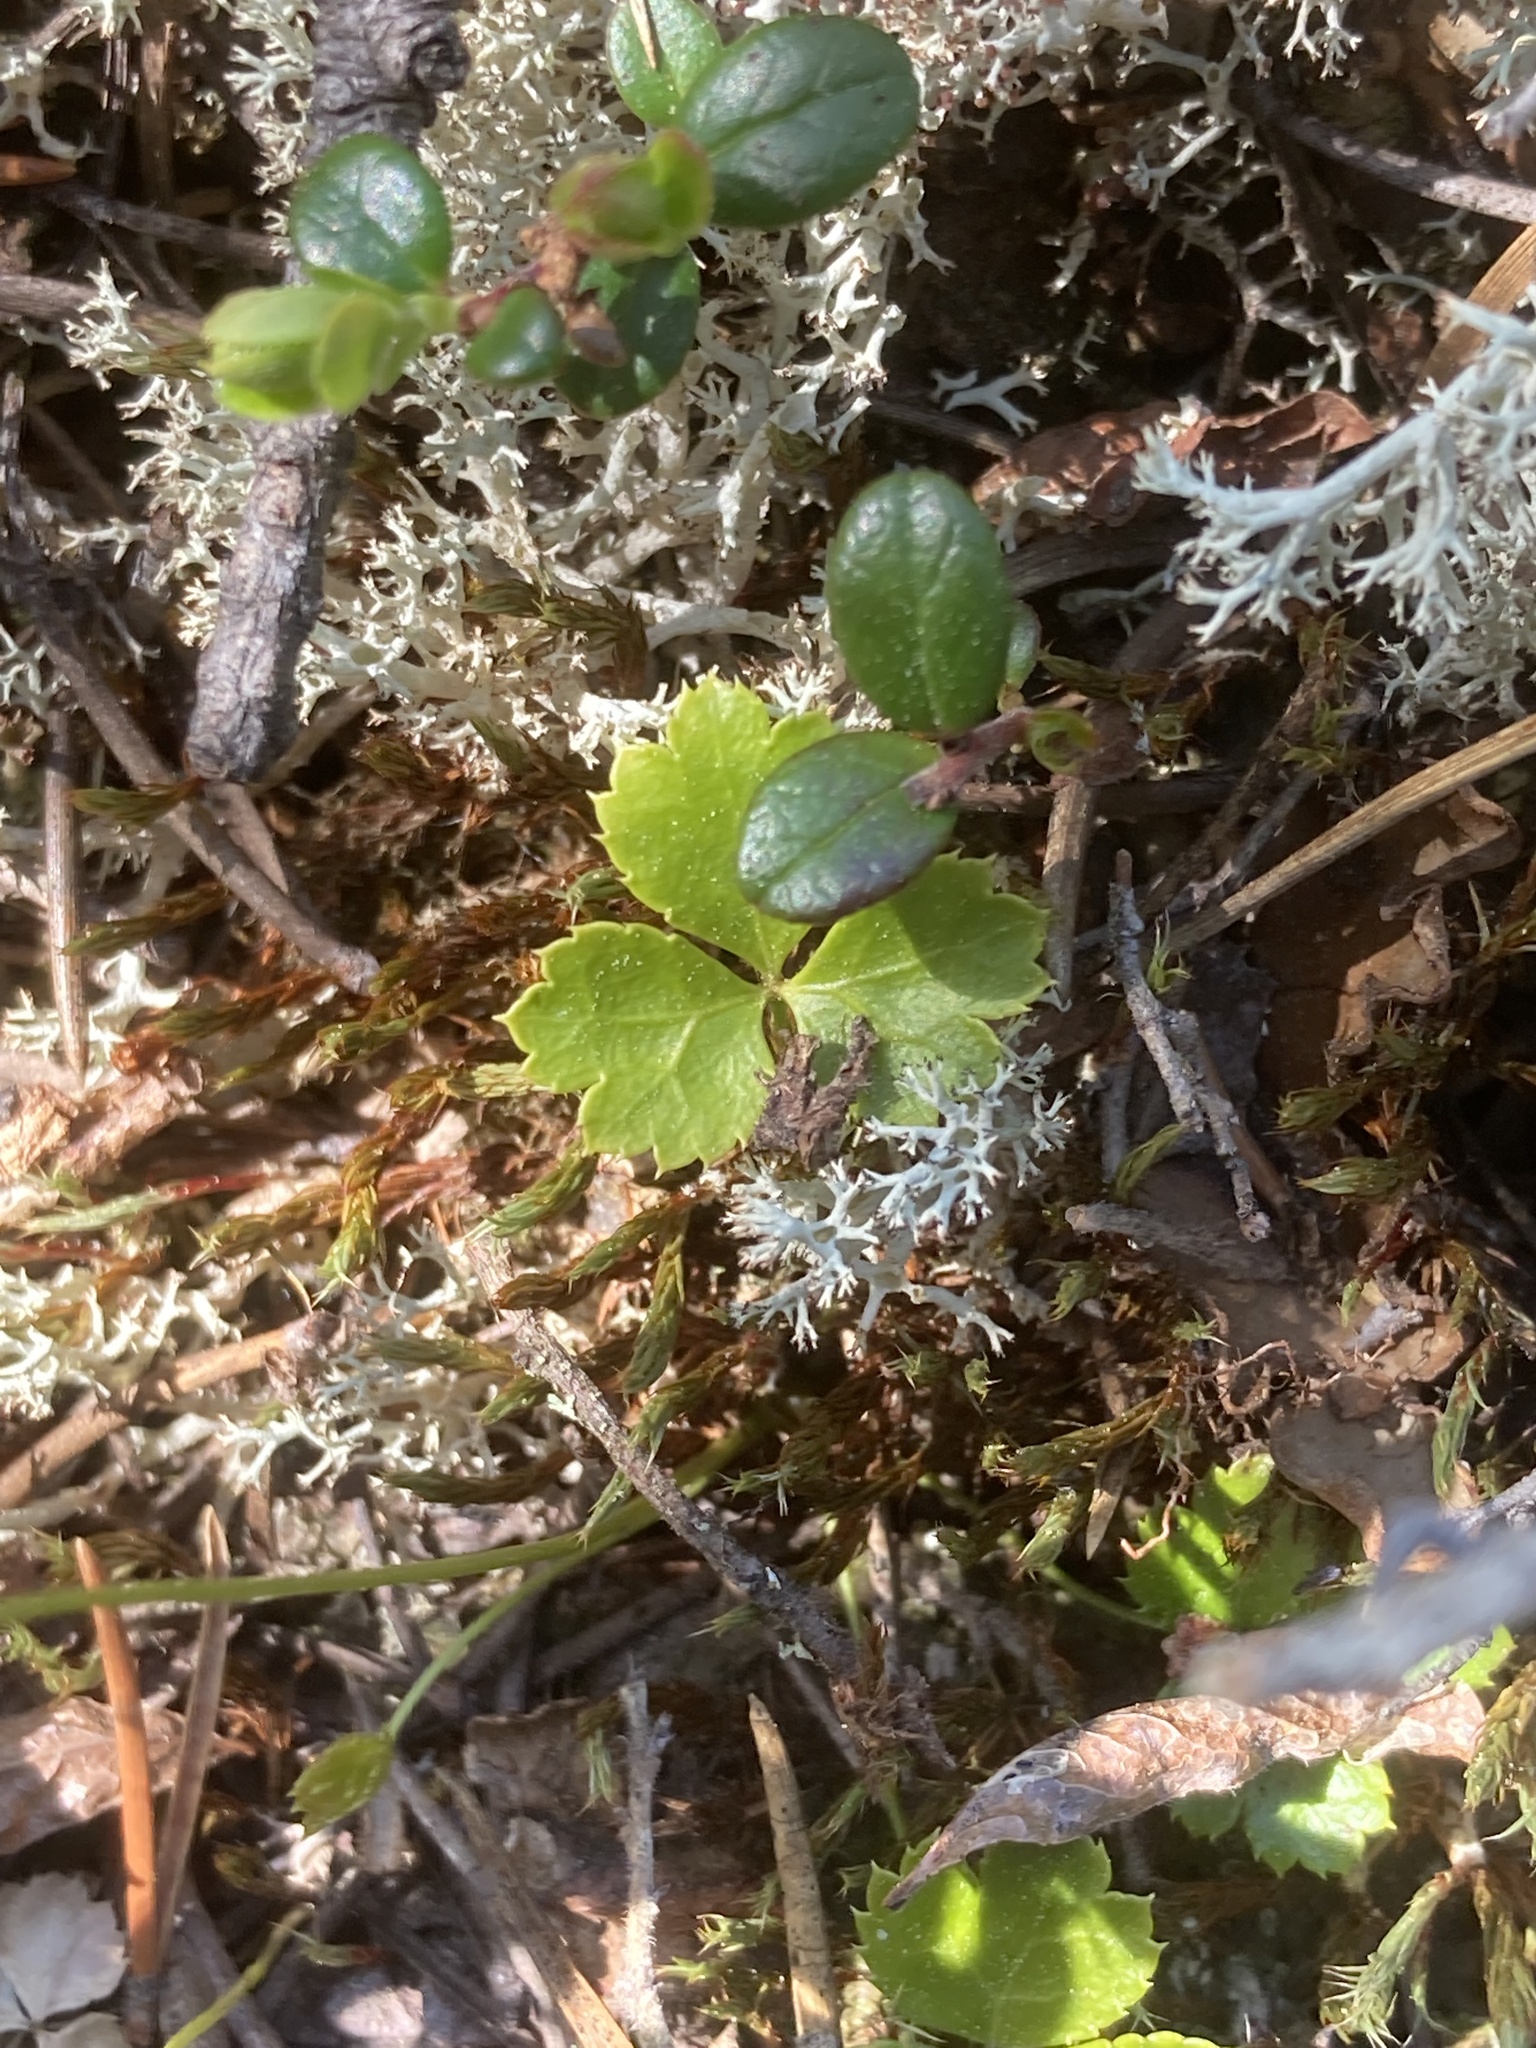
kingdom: Plantae
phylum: Tracheophyta
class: Magnoliopsida
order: Ranunculales
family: Ranunculaceae
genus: Coptis
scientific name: Coptis trifolia
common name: Canker-root
